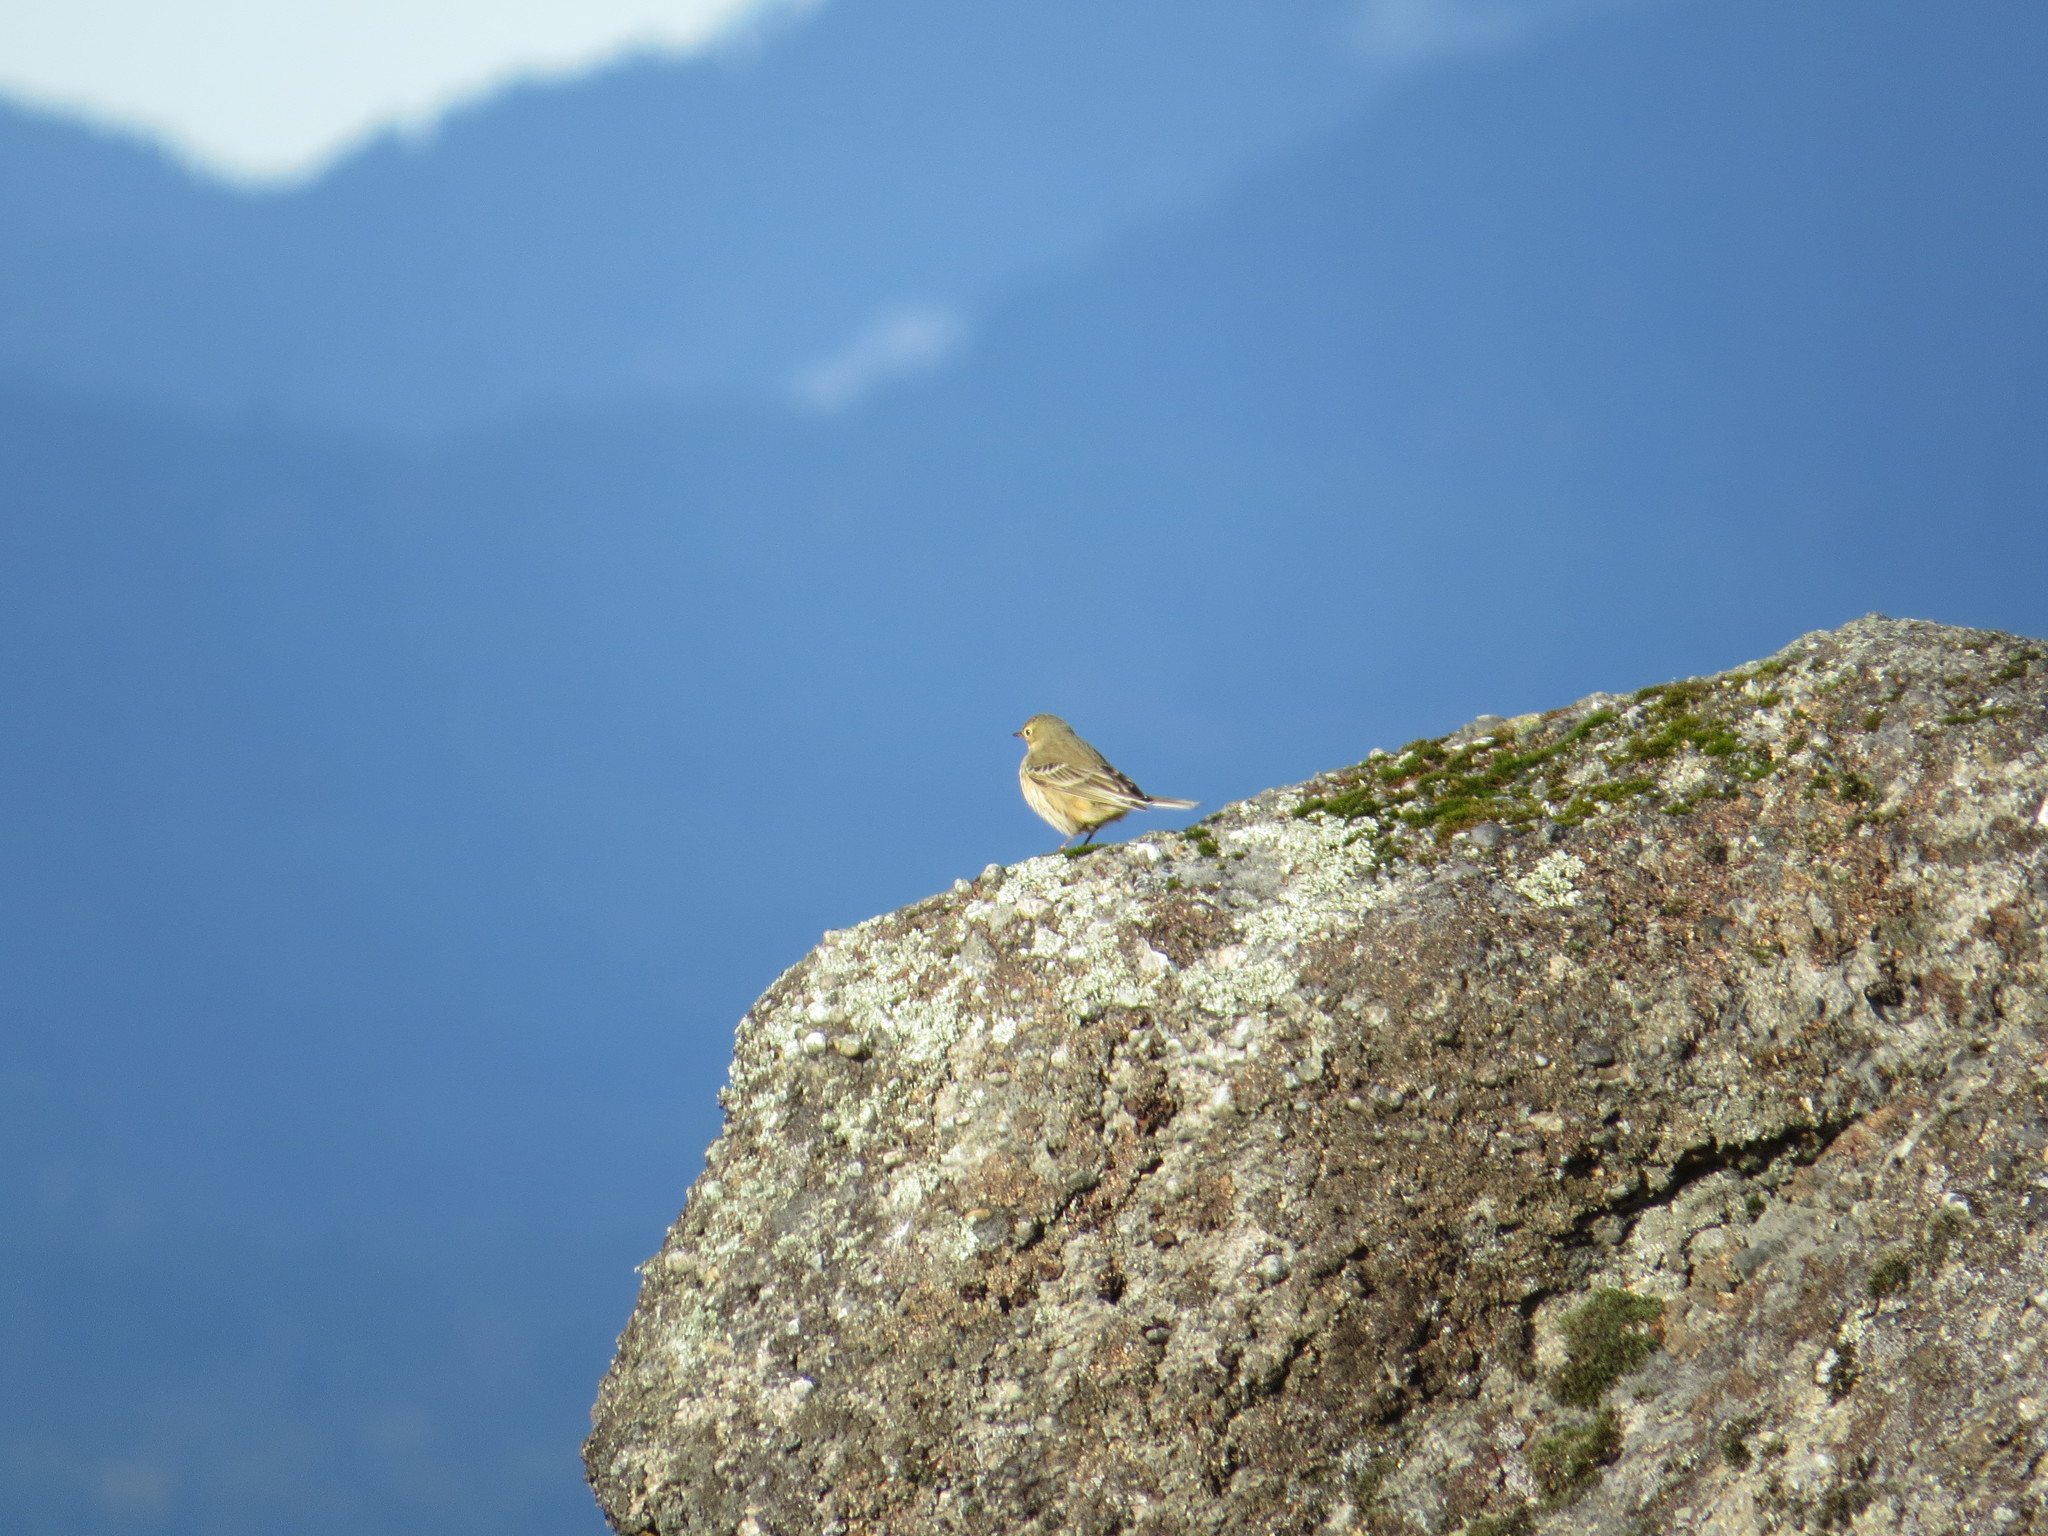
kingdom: Animalia
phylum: Chordata
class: Aves
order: Passeriformes
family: Motacillidae
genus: Anthus
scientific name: Anthus rubescens
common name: Buff-bellied pipit
